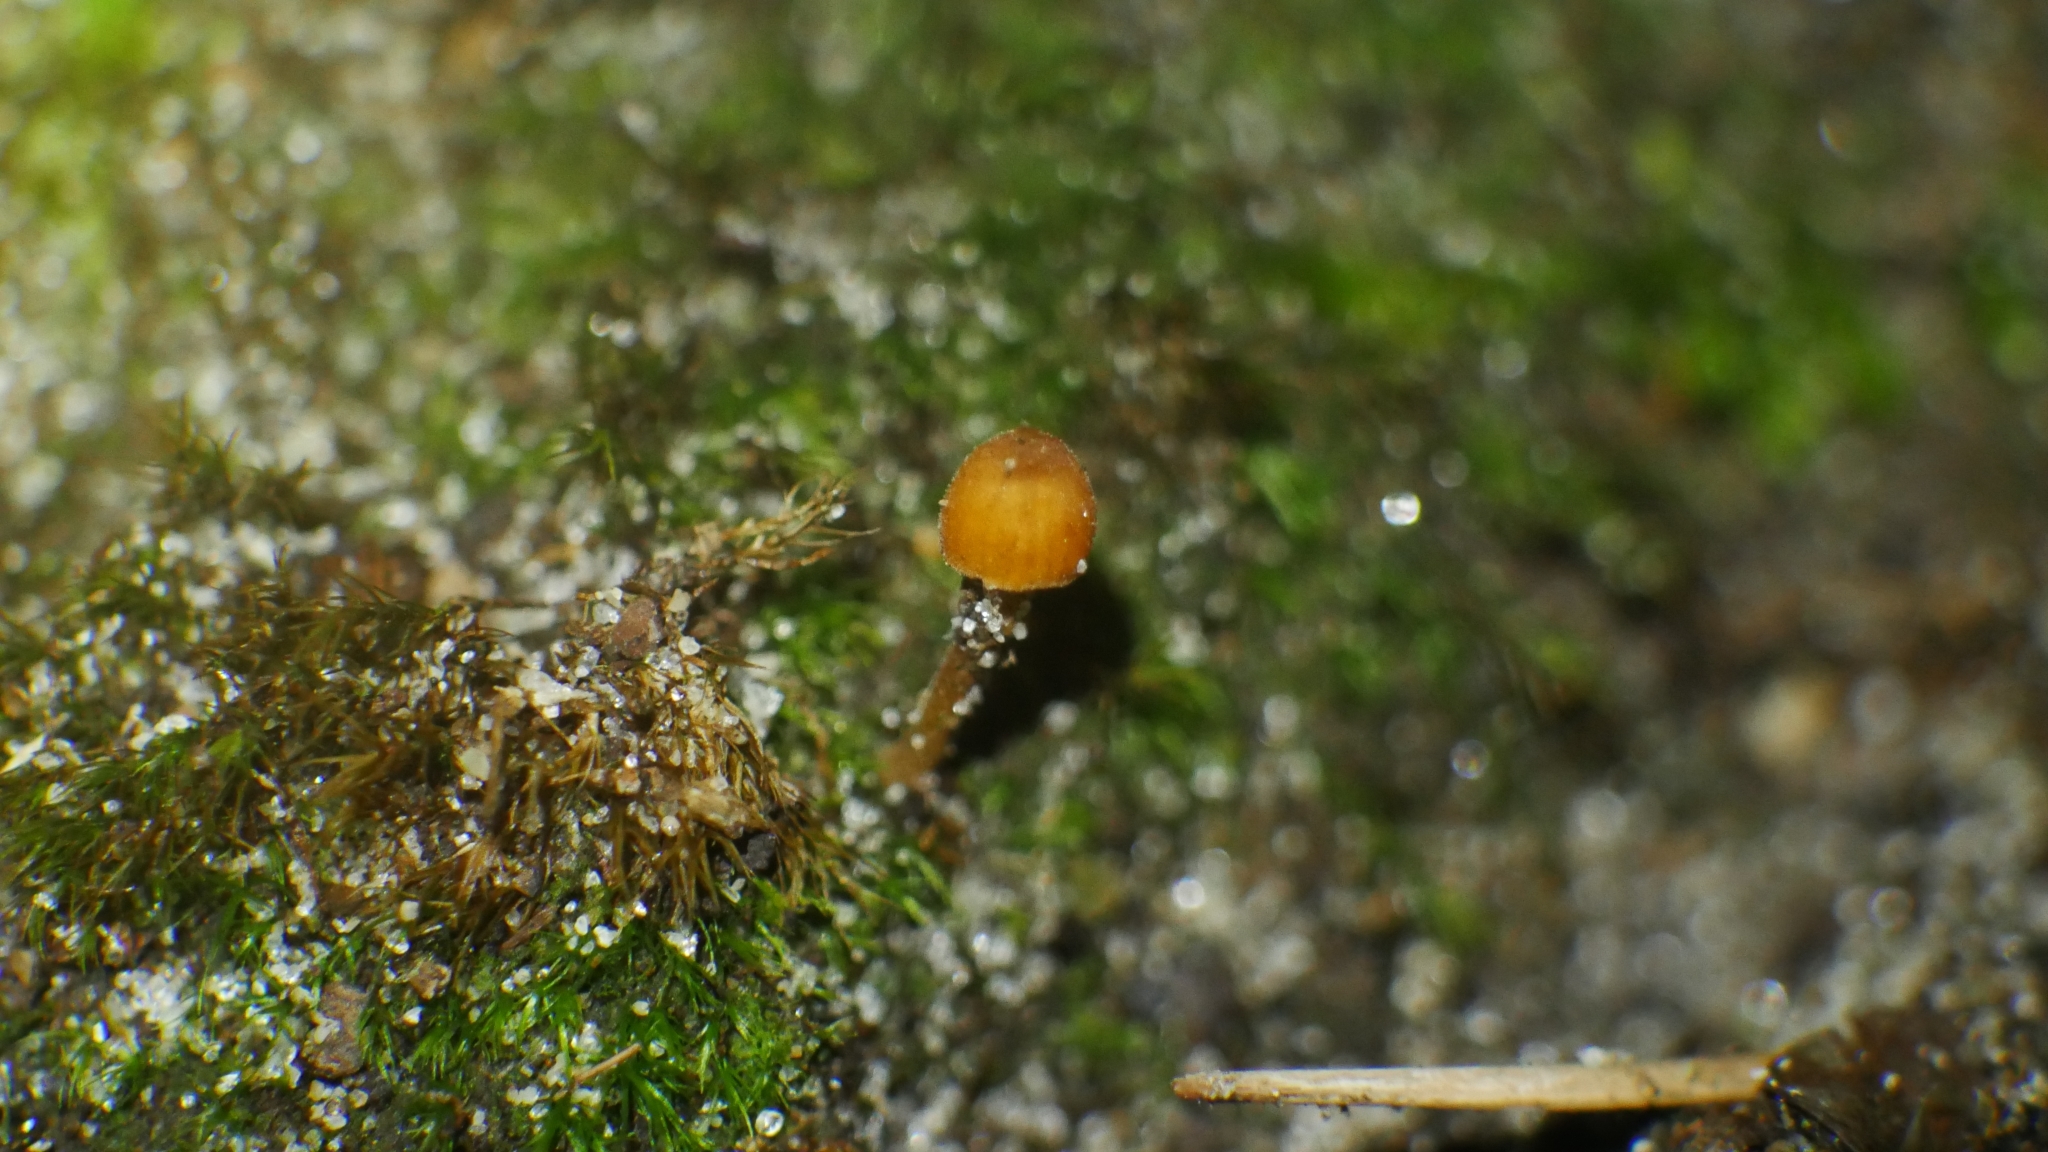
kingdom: Fungi
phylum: Basidiomycota
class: Agaricomycetes
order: Agaricales
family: Mycenaceae
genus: Mycena
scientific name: Mycena corticola
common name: Bark mycena
